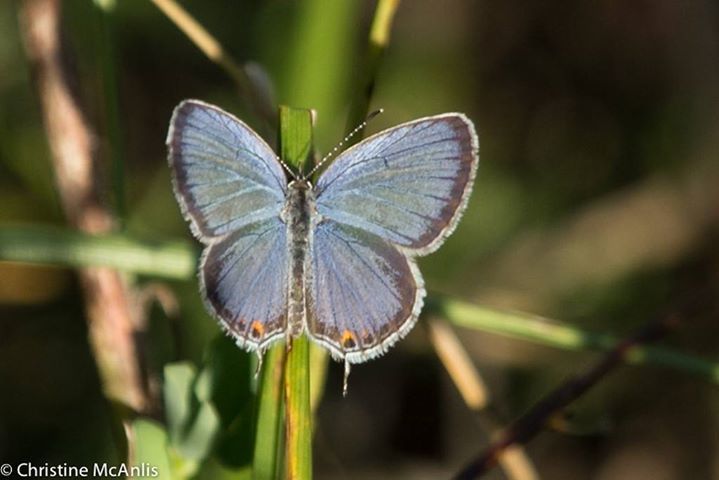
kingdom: Animalia
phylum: Arthropoda
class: Insecta
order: Lepidoptera
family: Lycaenidae
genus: Elkalyce
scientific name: Elkalyce comyntas
